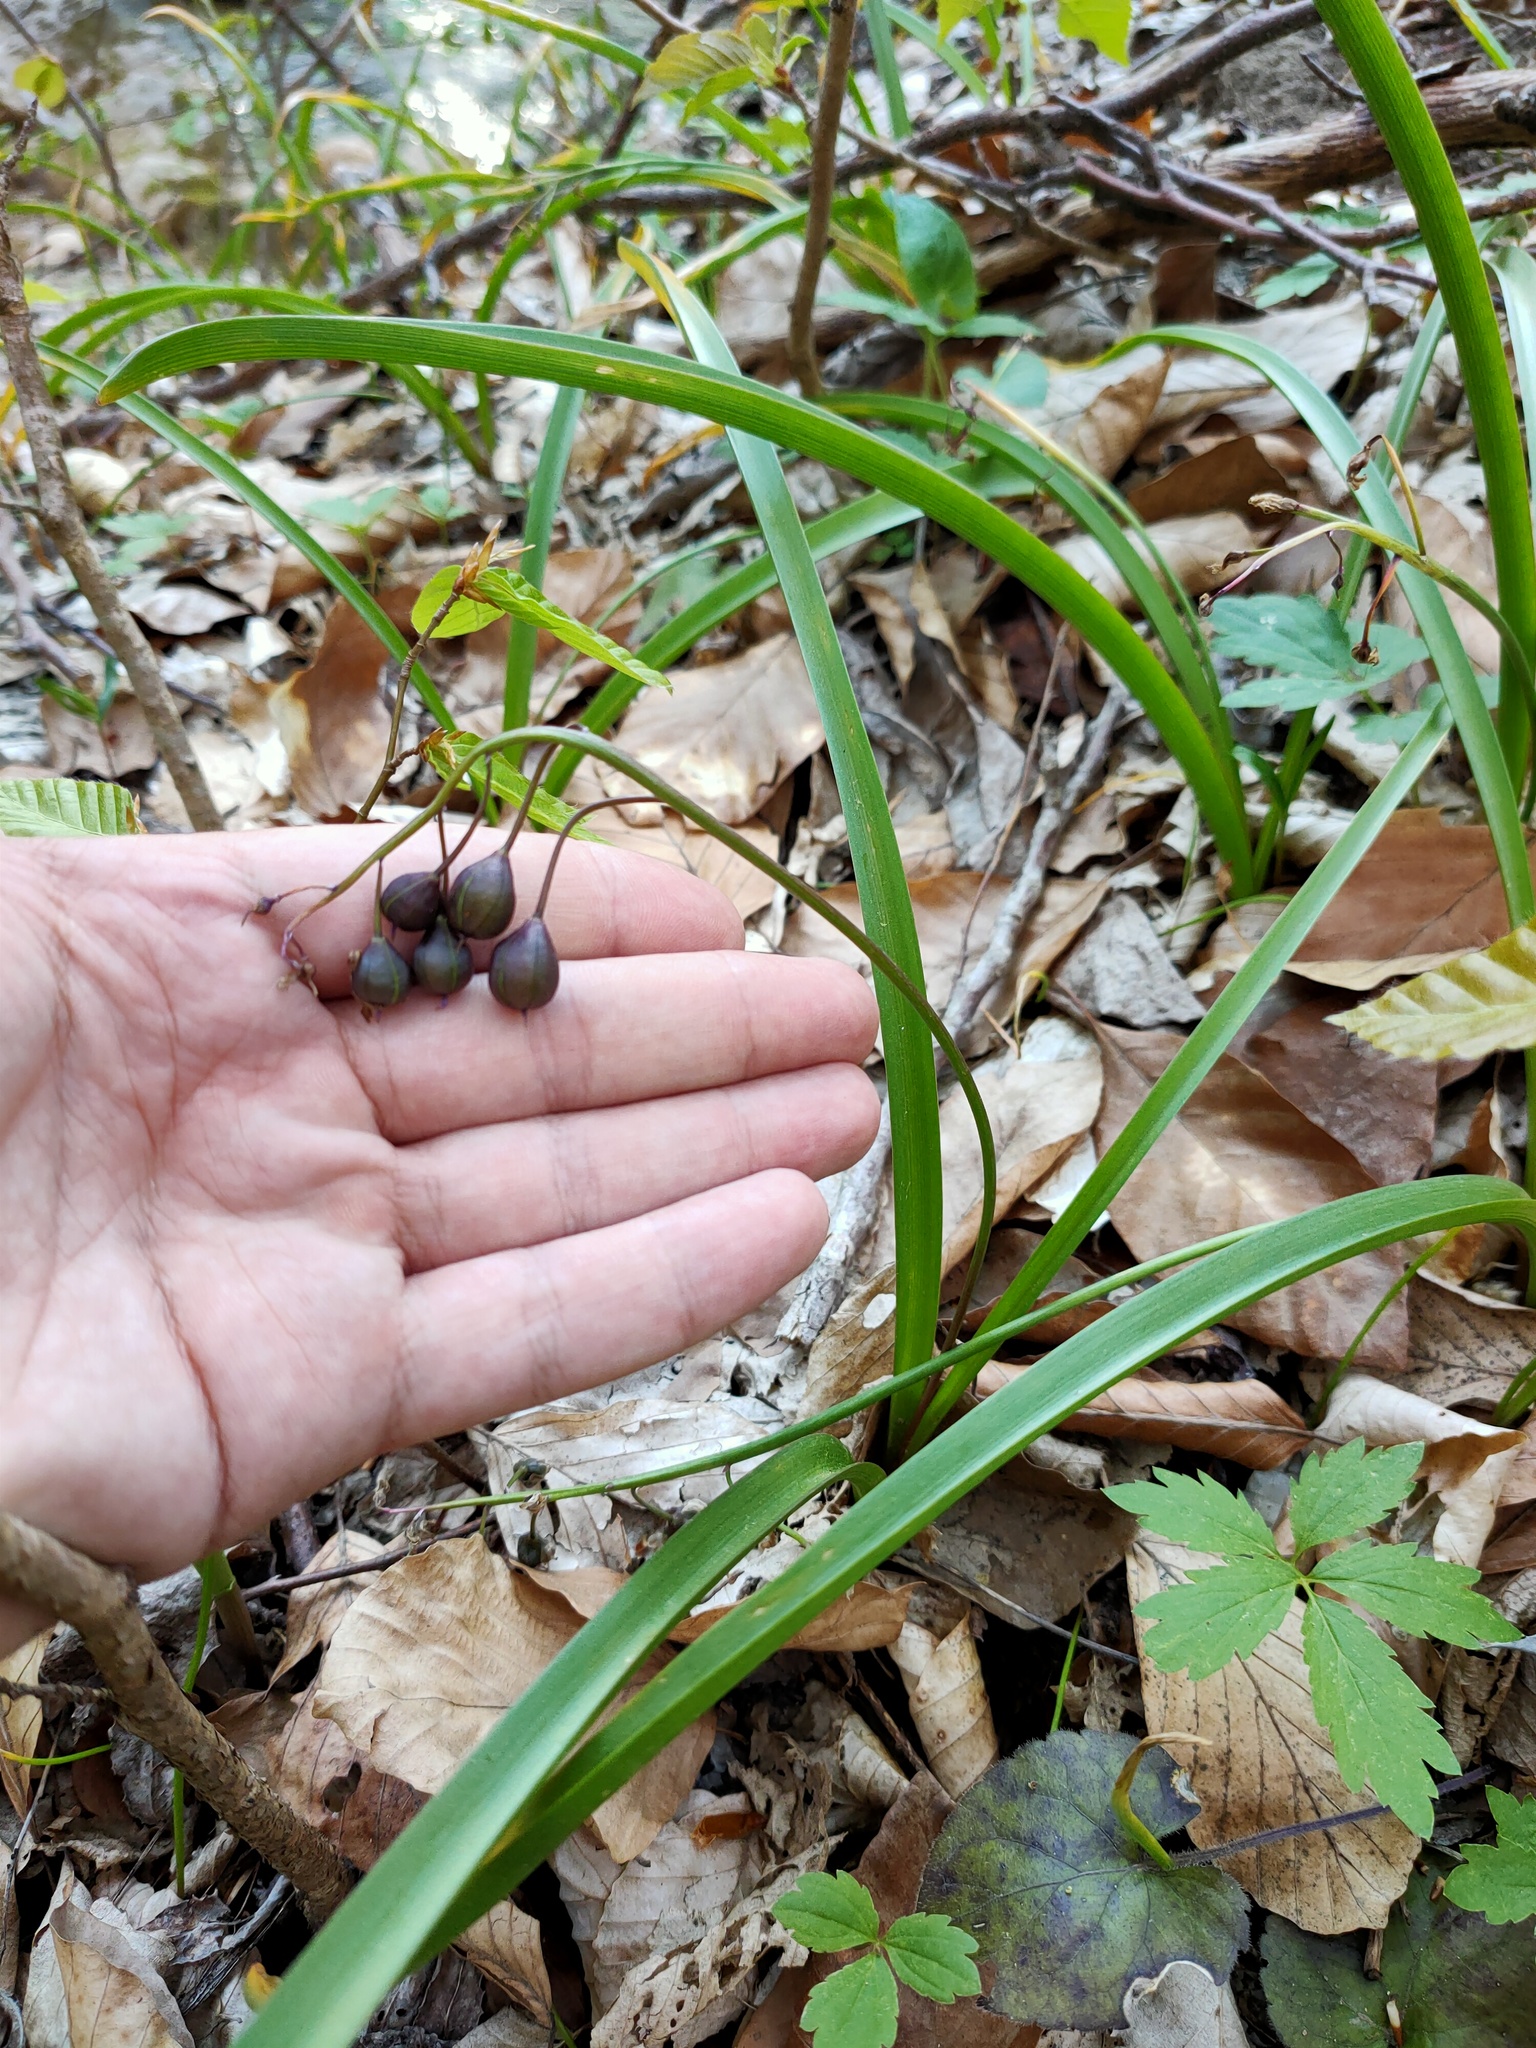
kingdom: Plantae
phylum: Tracheophyta
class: Liliopsida
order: Asparagales
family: Asparagaceae
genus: Scilla
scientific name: Scilla bifolia
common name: Alpine squill
